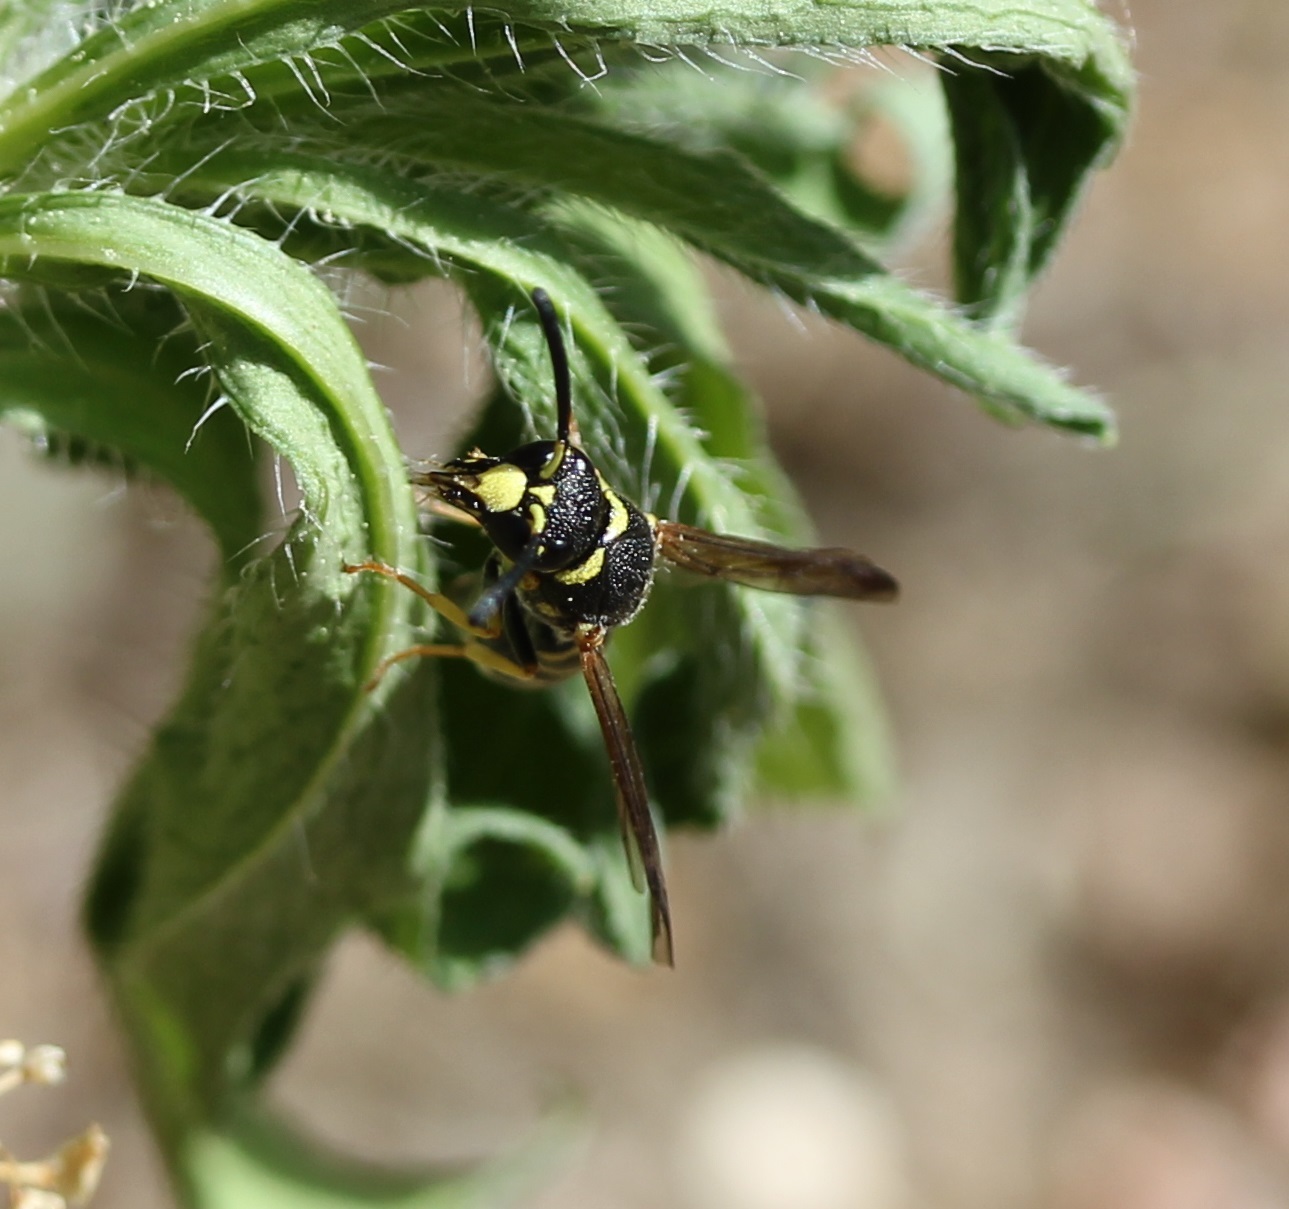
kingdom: Animalia
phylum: Arthropoda
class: Insecta
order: Hymenoptera
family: Eumenidae
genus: Parancistrocerus
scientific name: Parancistrocerus
